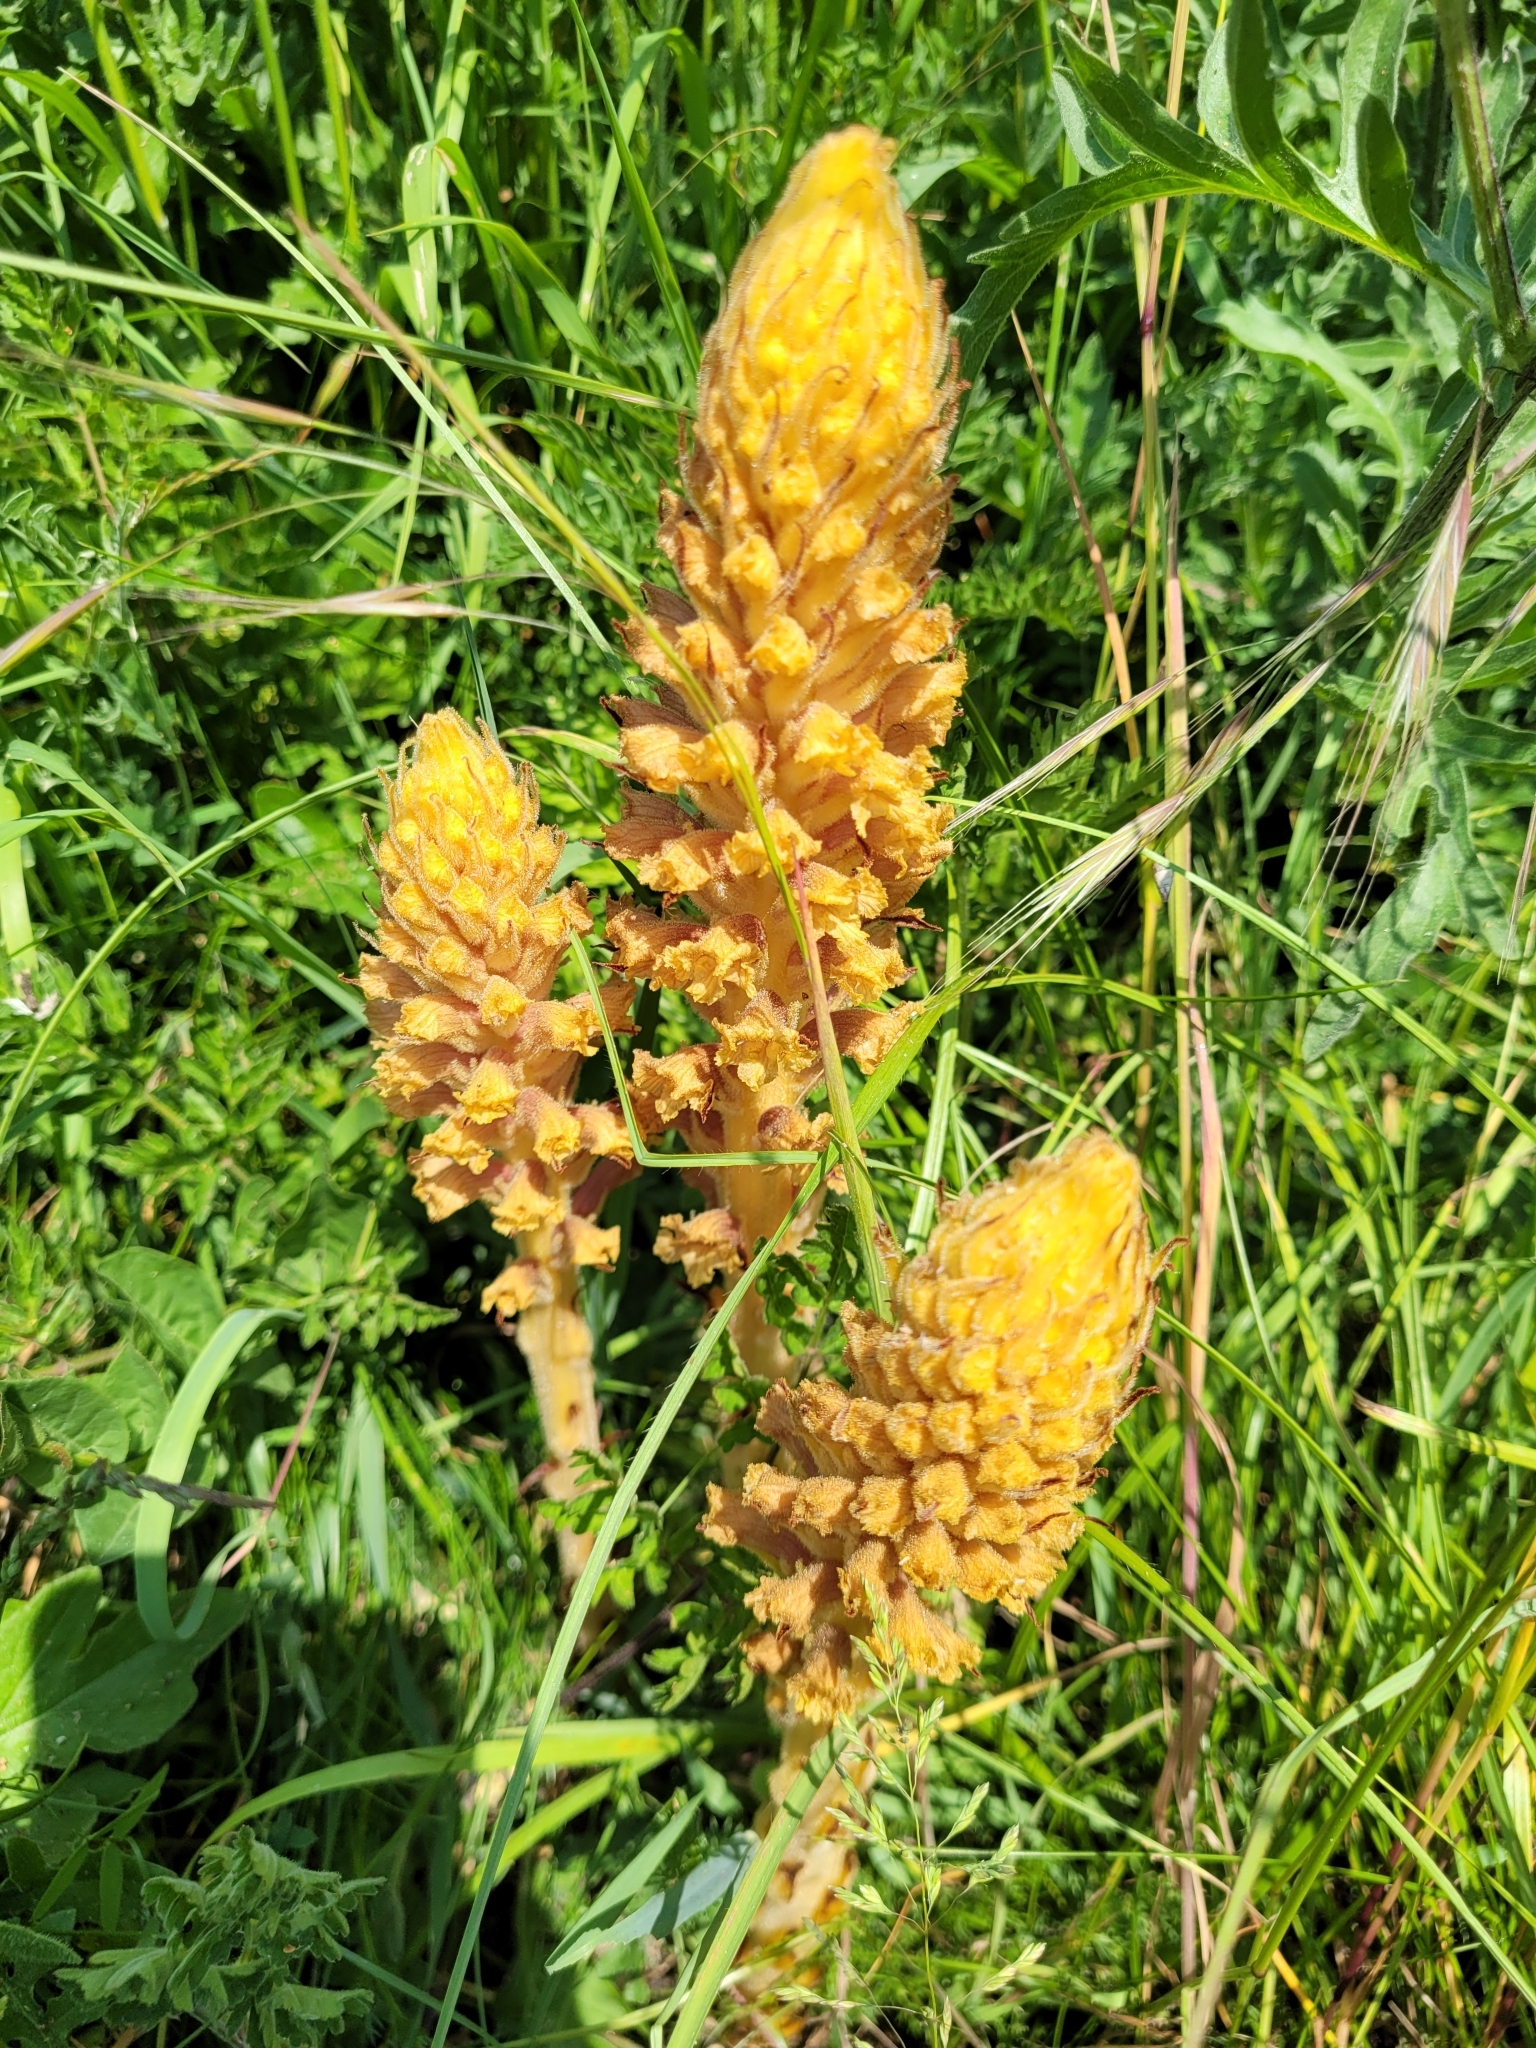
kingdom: Plantae
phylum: Tracheophyta
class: Magnoliopsida
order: Lamiales
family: Orobanchaceae
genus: Orobanche
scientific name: Orobanche elatior
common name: Knapweed broomrape
